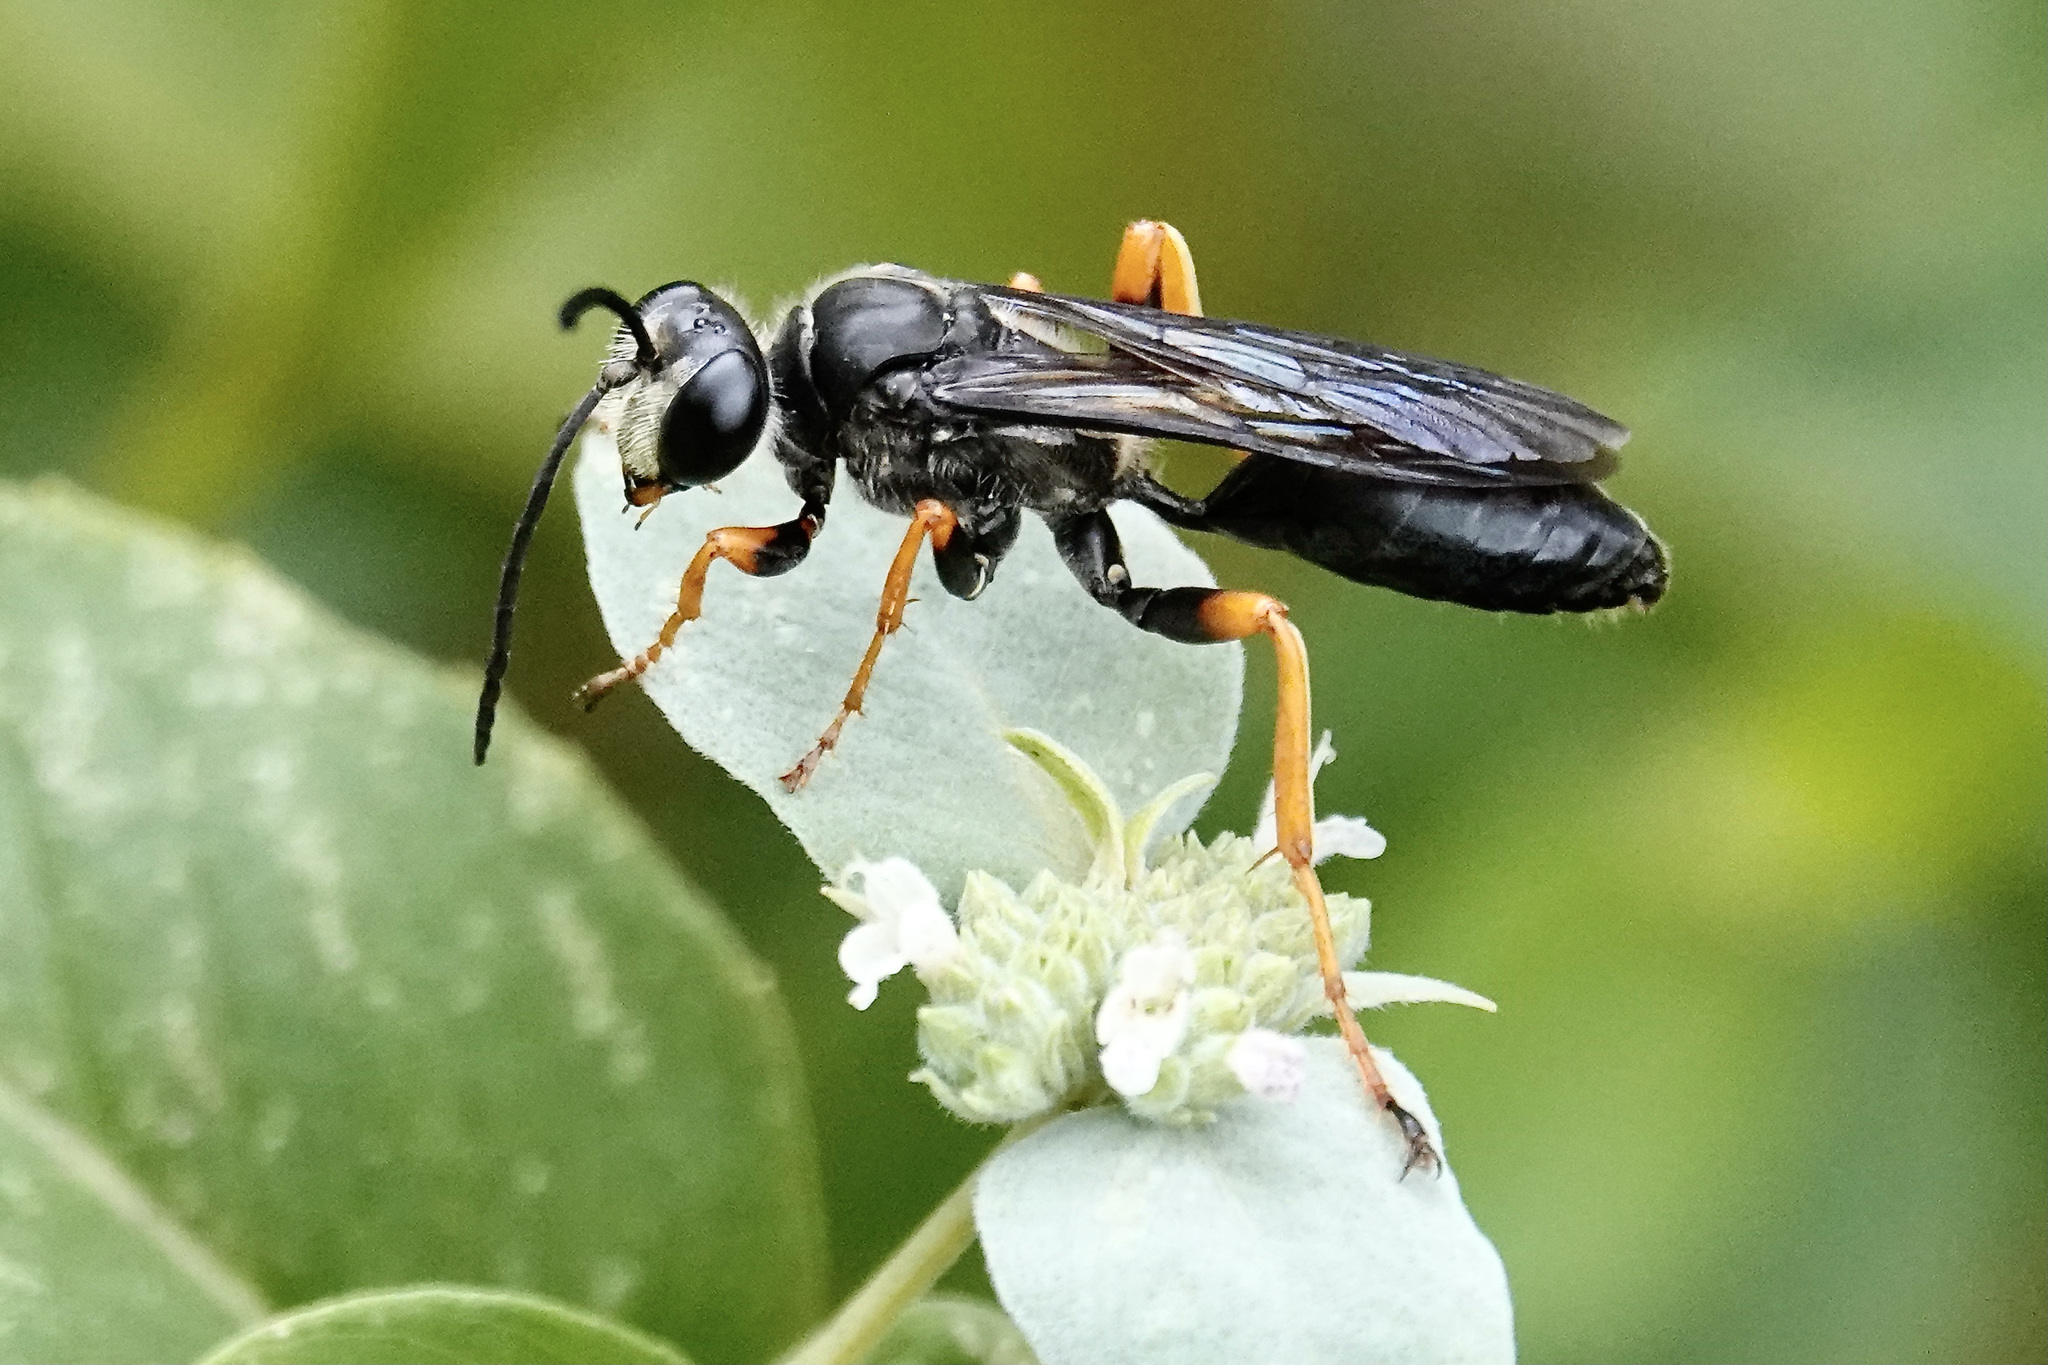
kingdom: Animalia
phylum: Arthropoda
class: Insecta
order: Hymenoptera
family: Sphecidae
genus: Sphex
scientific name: Sphex nudus
